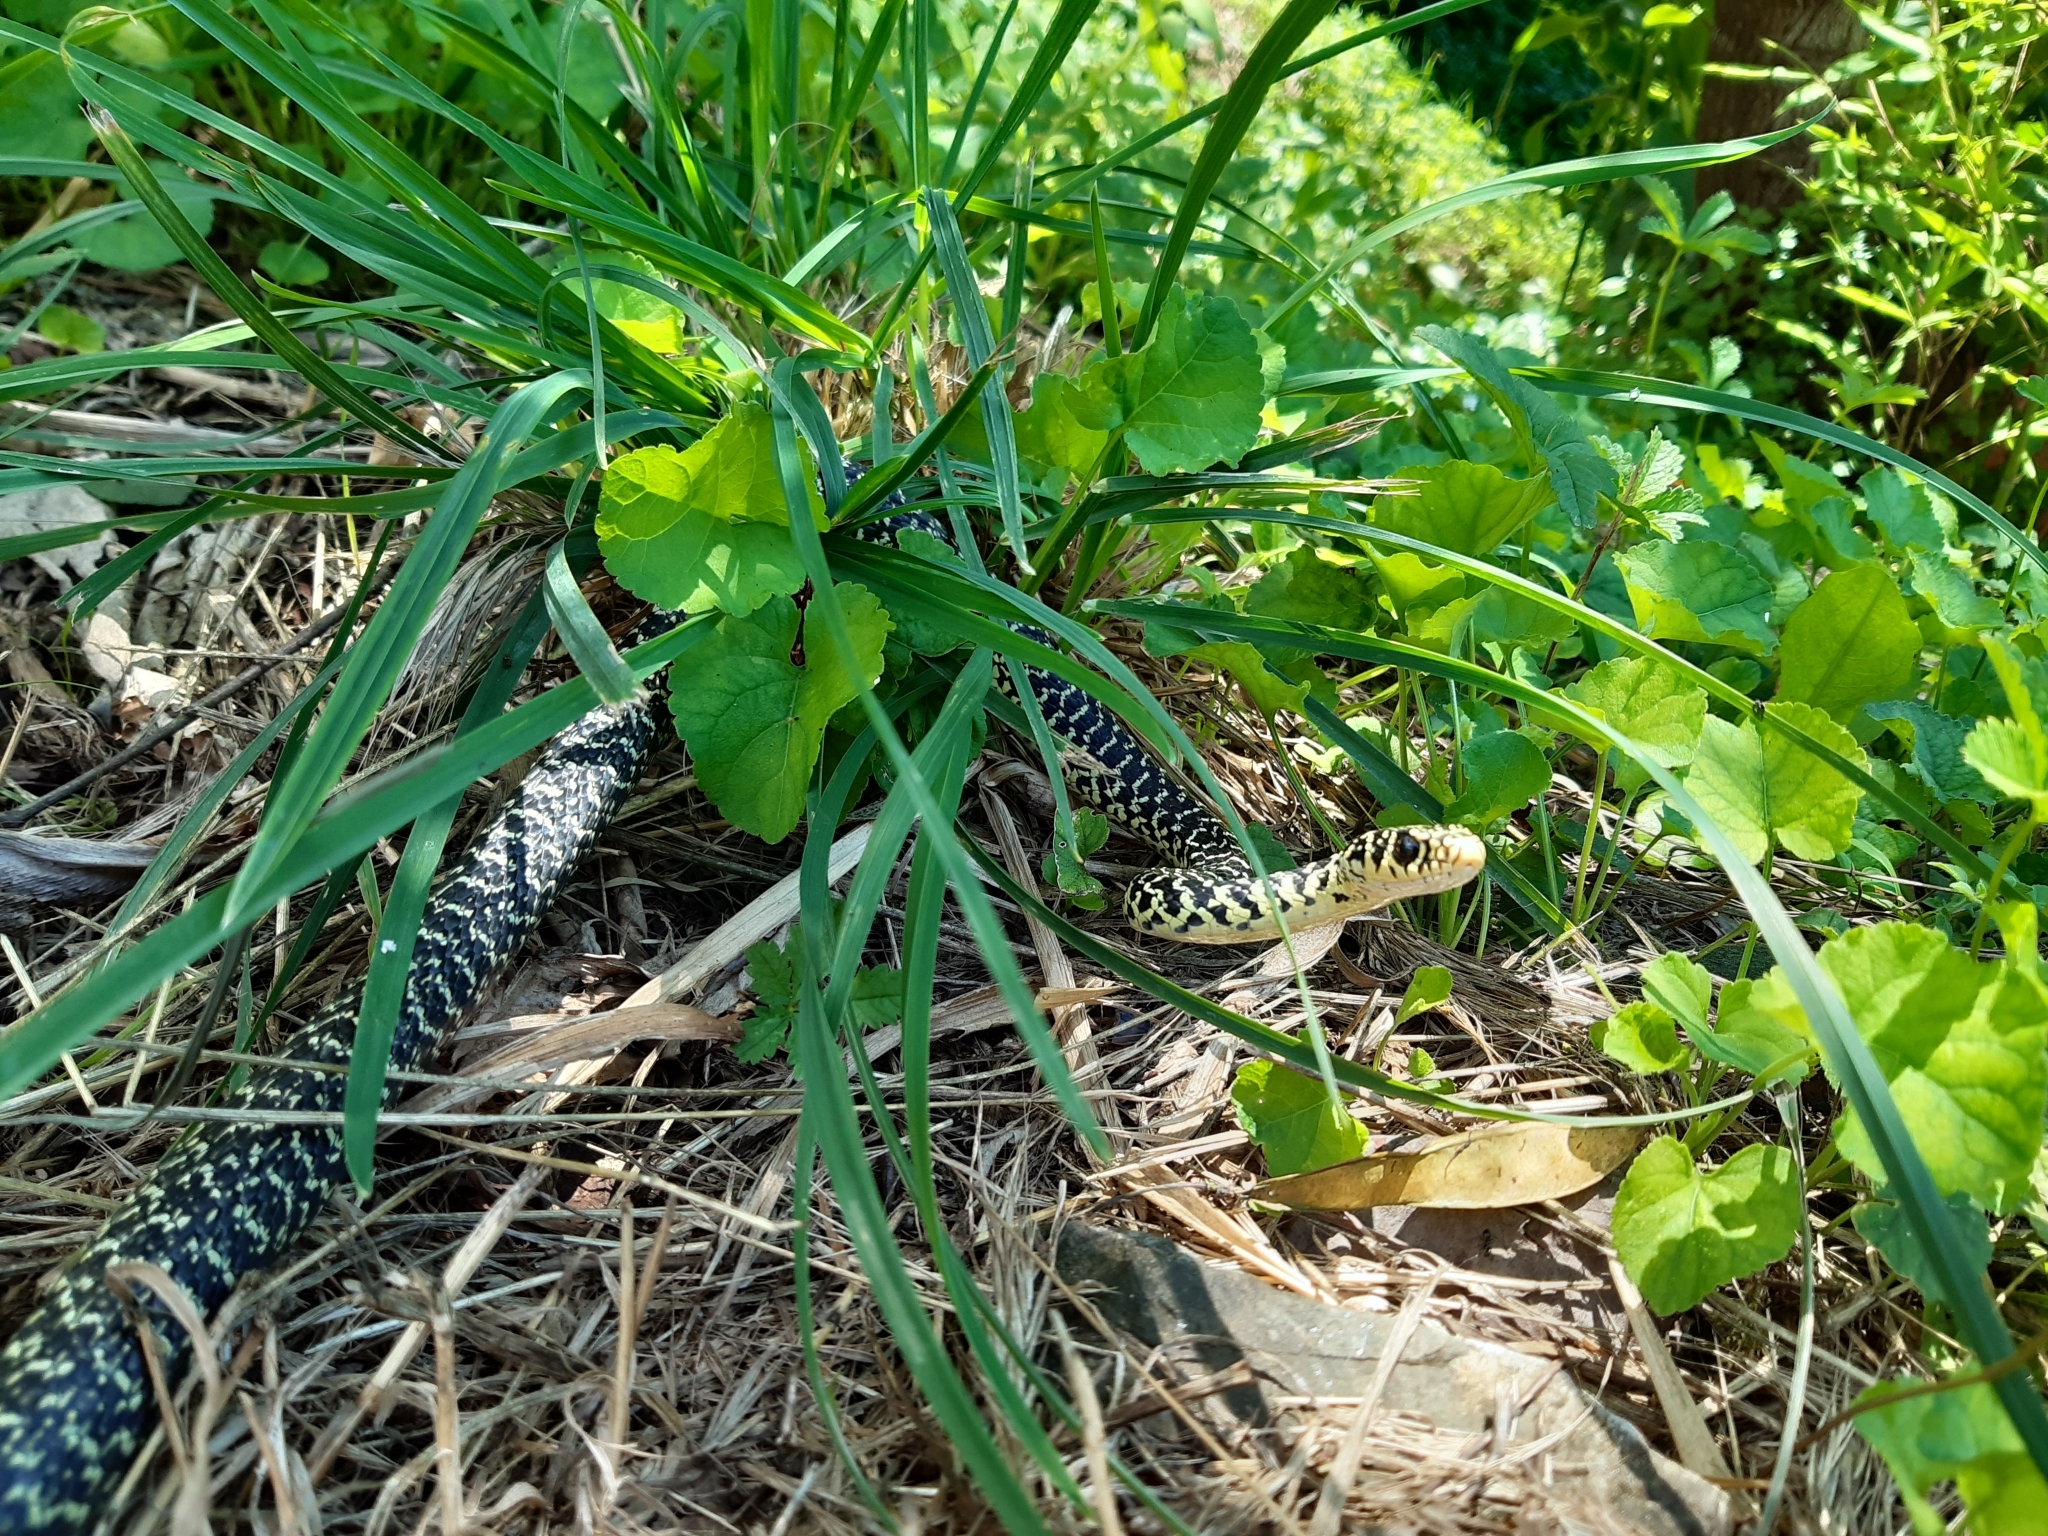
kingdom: Animalia
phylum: Chordata
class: Squamata
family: Colubridae
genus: Hierophis
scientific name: Hierophis viridiflavus
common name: Green whip snake
